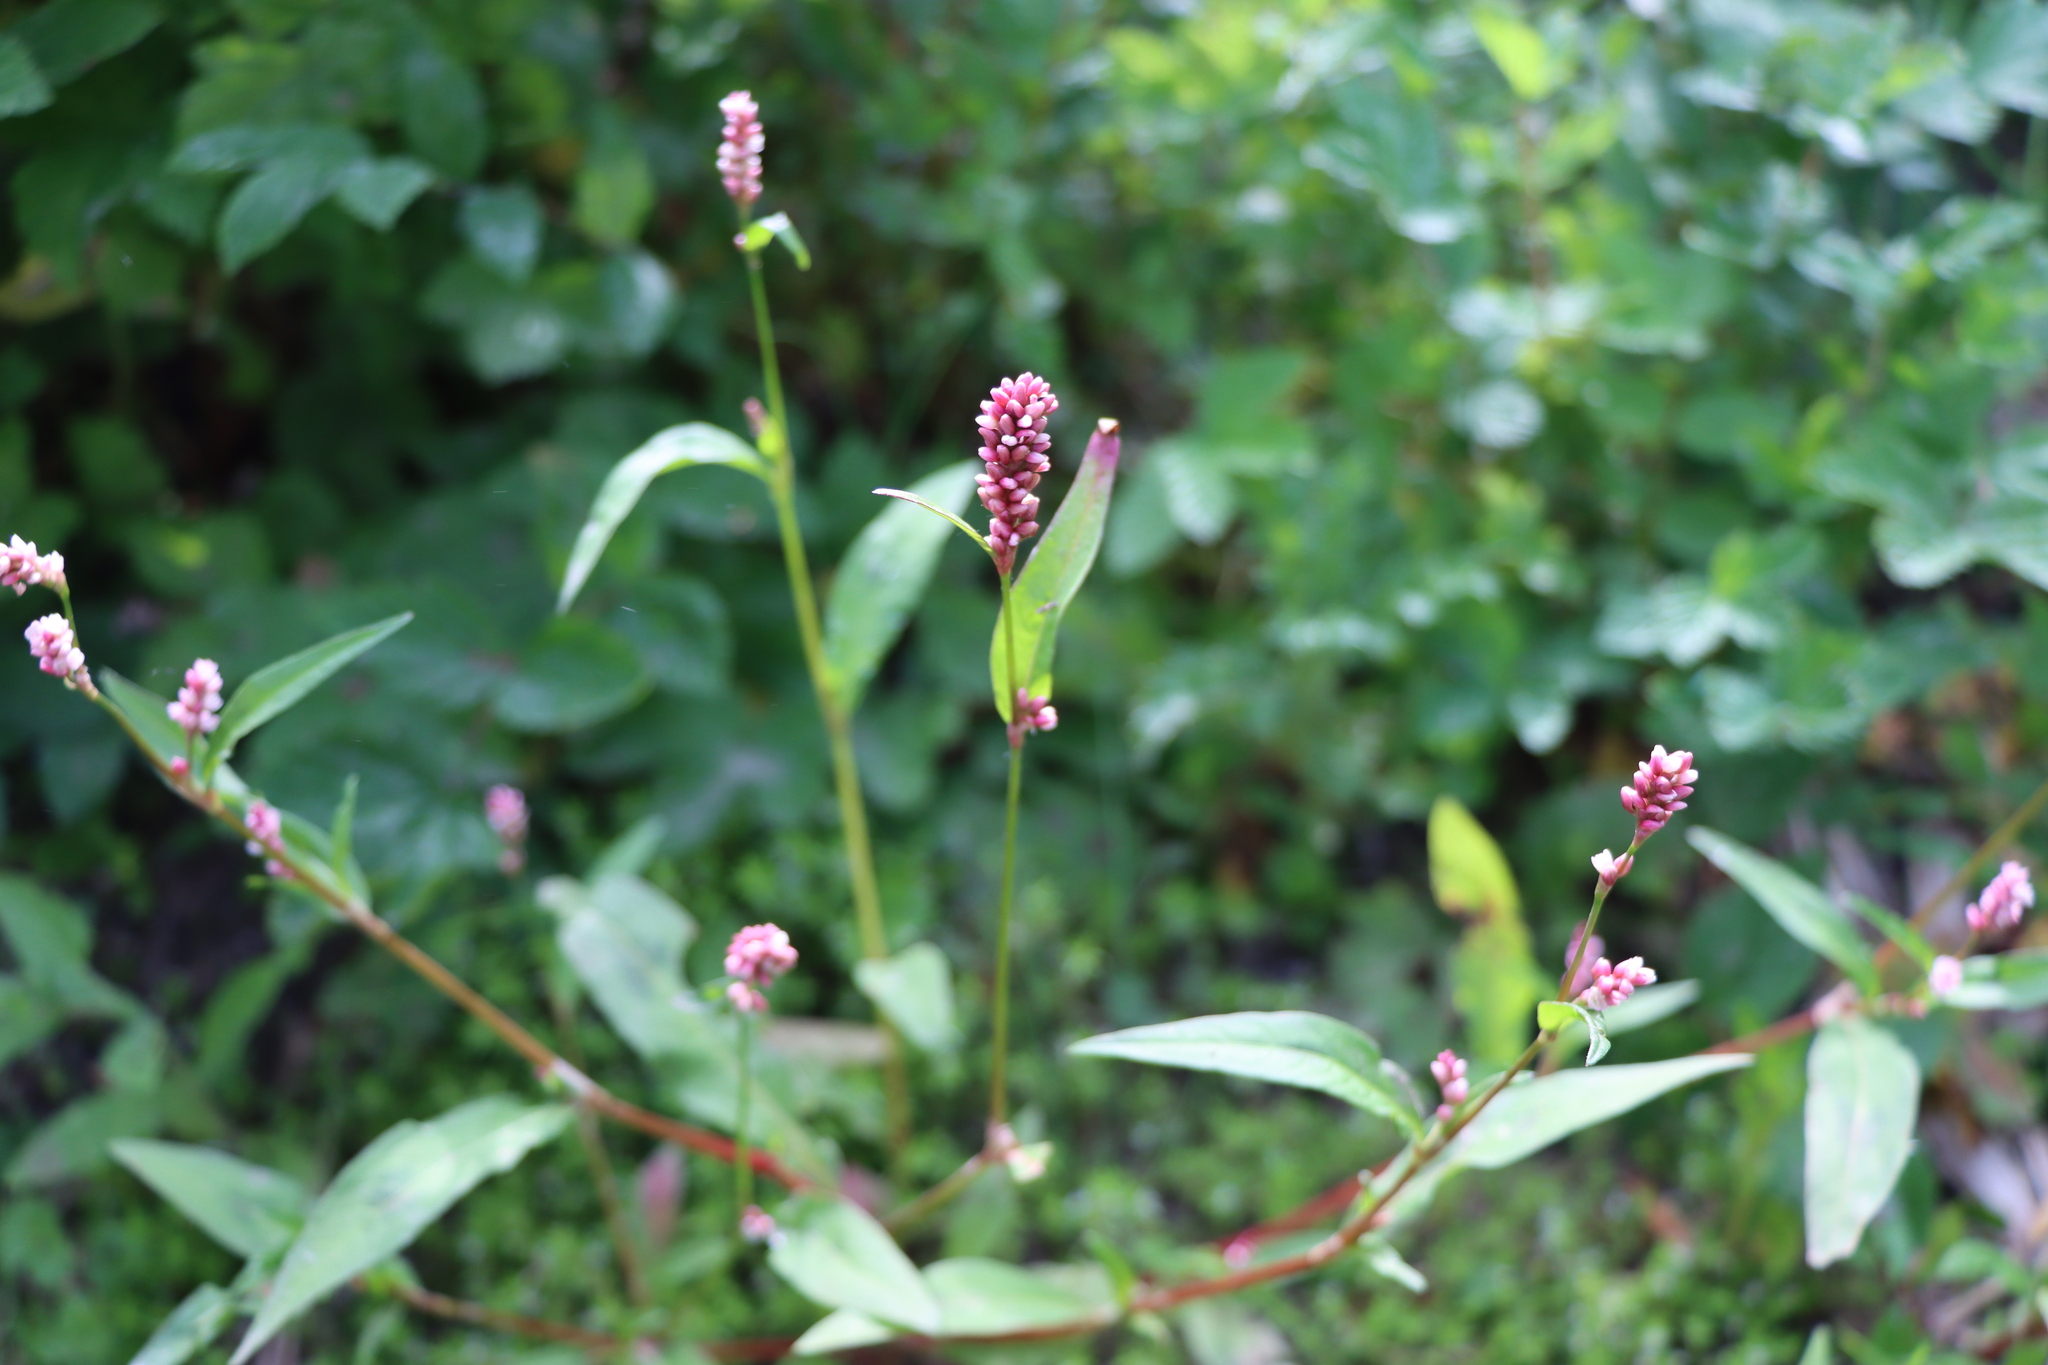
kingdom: Plantae
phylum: Tracheophyta
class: Magnoliopsida
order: Caryophyllales
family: Polygonaceae
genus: Persicaria
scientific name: Persicaria maculosa
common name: Redshank
